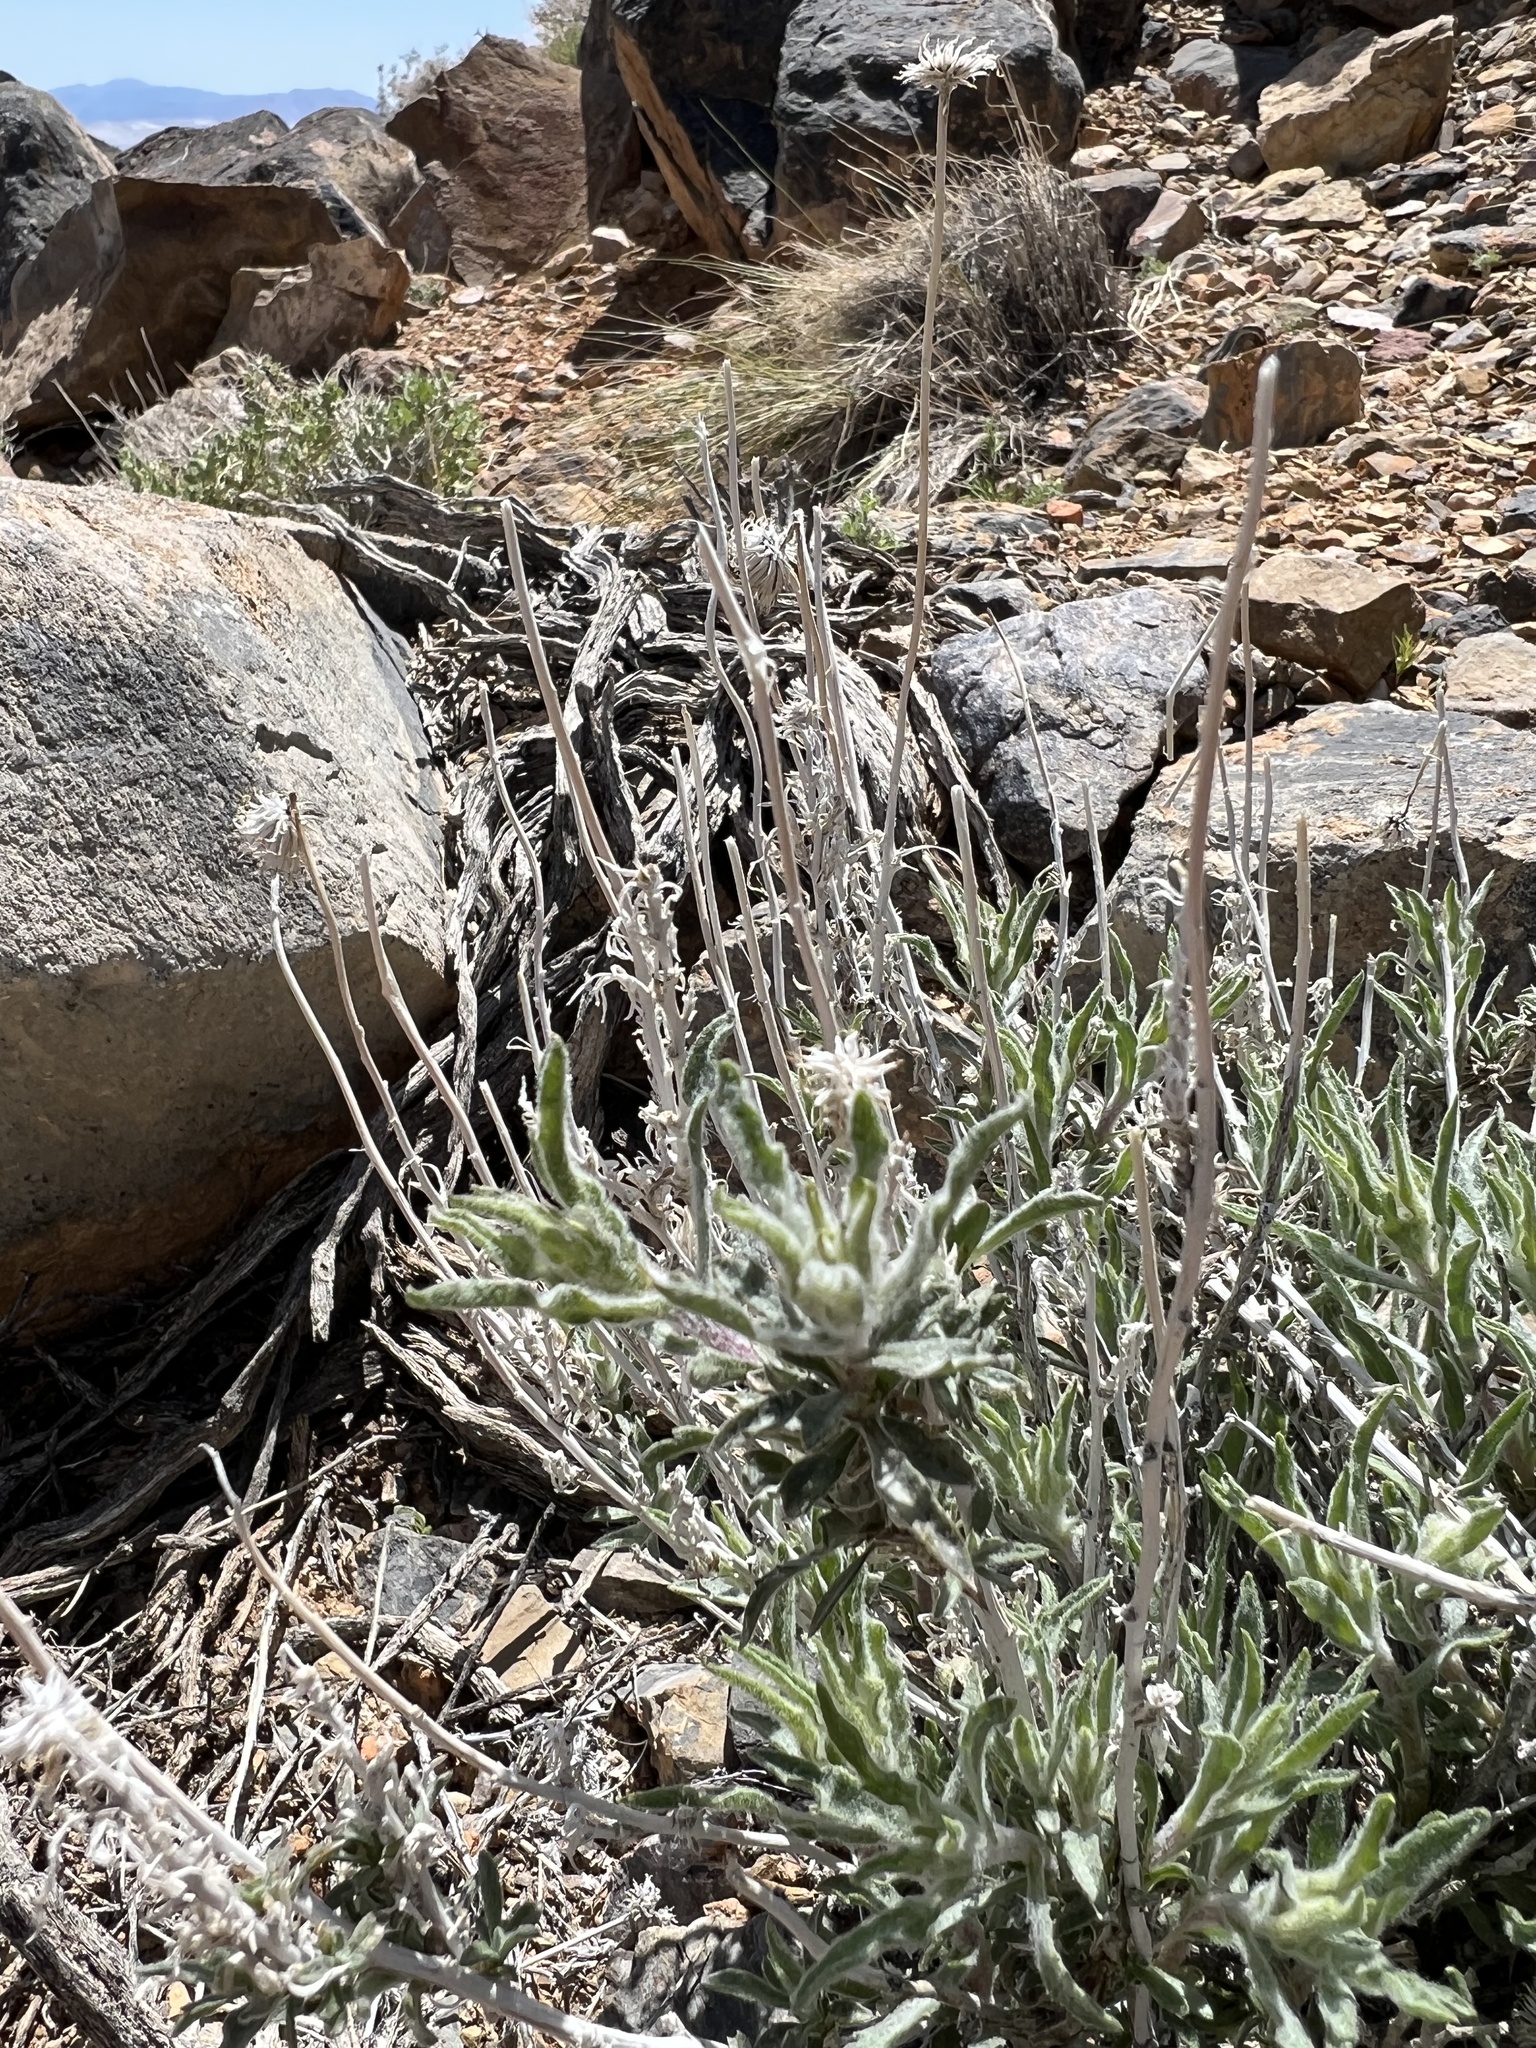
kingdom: Plantae
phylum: Tracheophyta
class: Magnoliopsida
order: Asterales
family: Asteraceae
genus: Xylorhiza
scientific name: Xylorhiza tortifolia
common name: Hurt-leaf woody-aster
